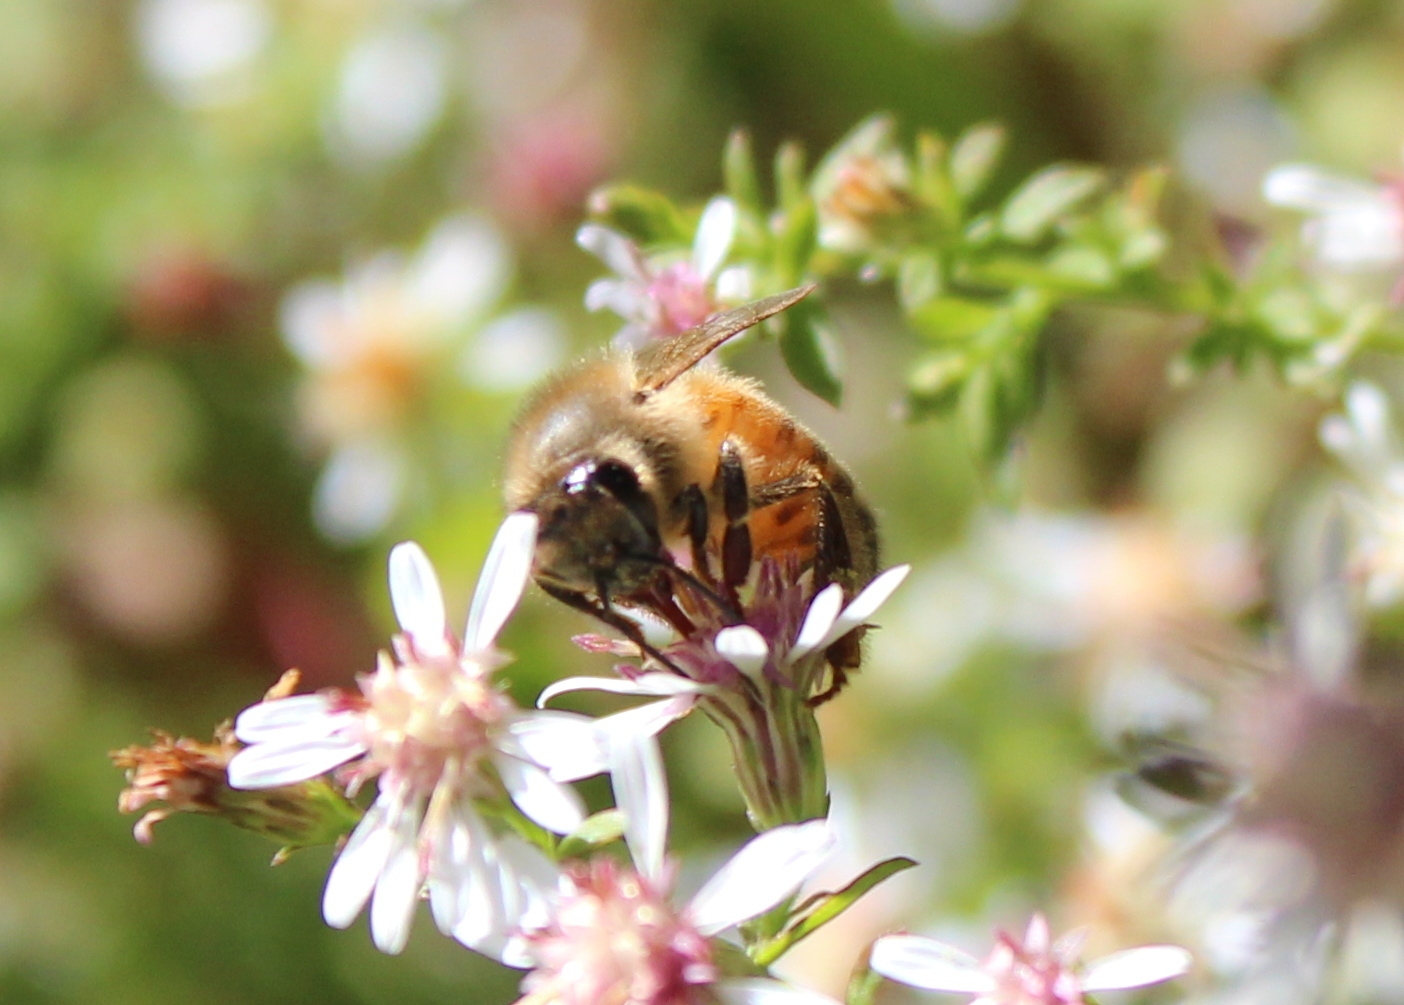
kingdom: Animalia
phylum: Arthropoda
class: Insecta
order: Hymenoptera
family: Apidae
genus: Apis
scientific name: Apis mellifera
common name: Honey bee
